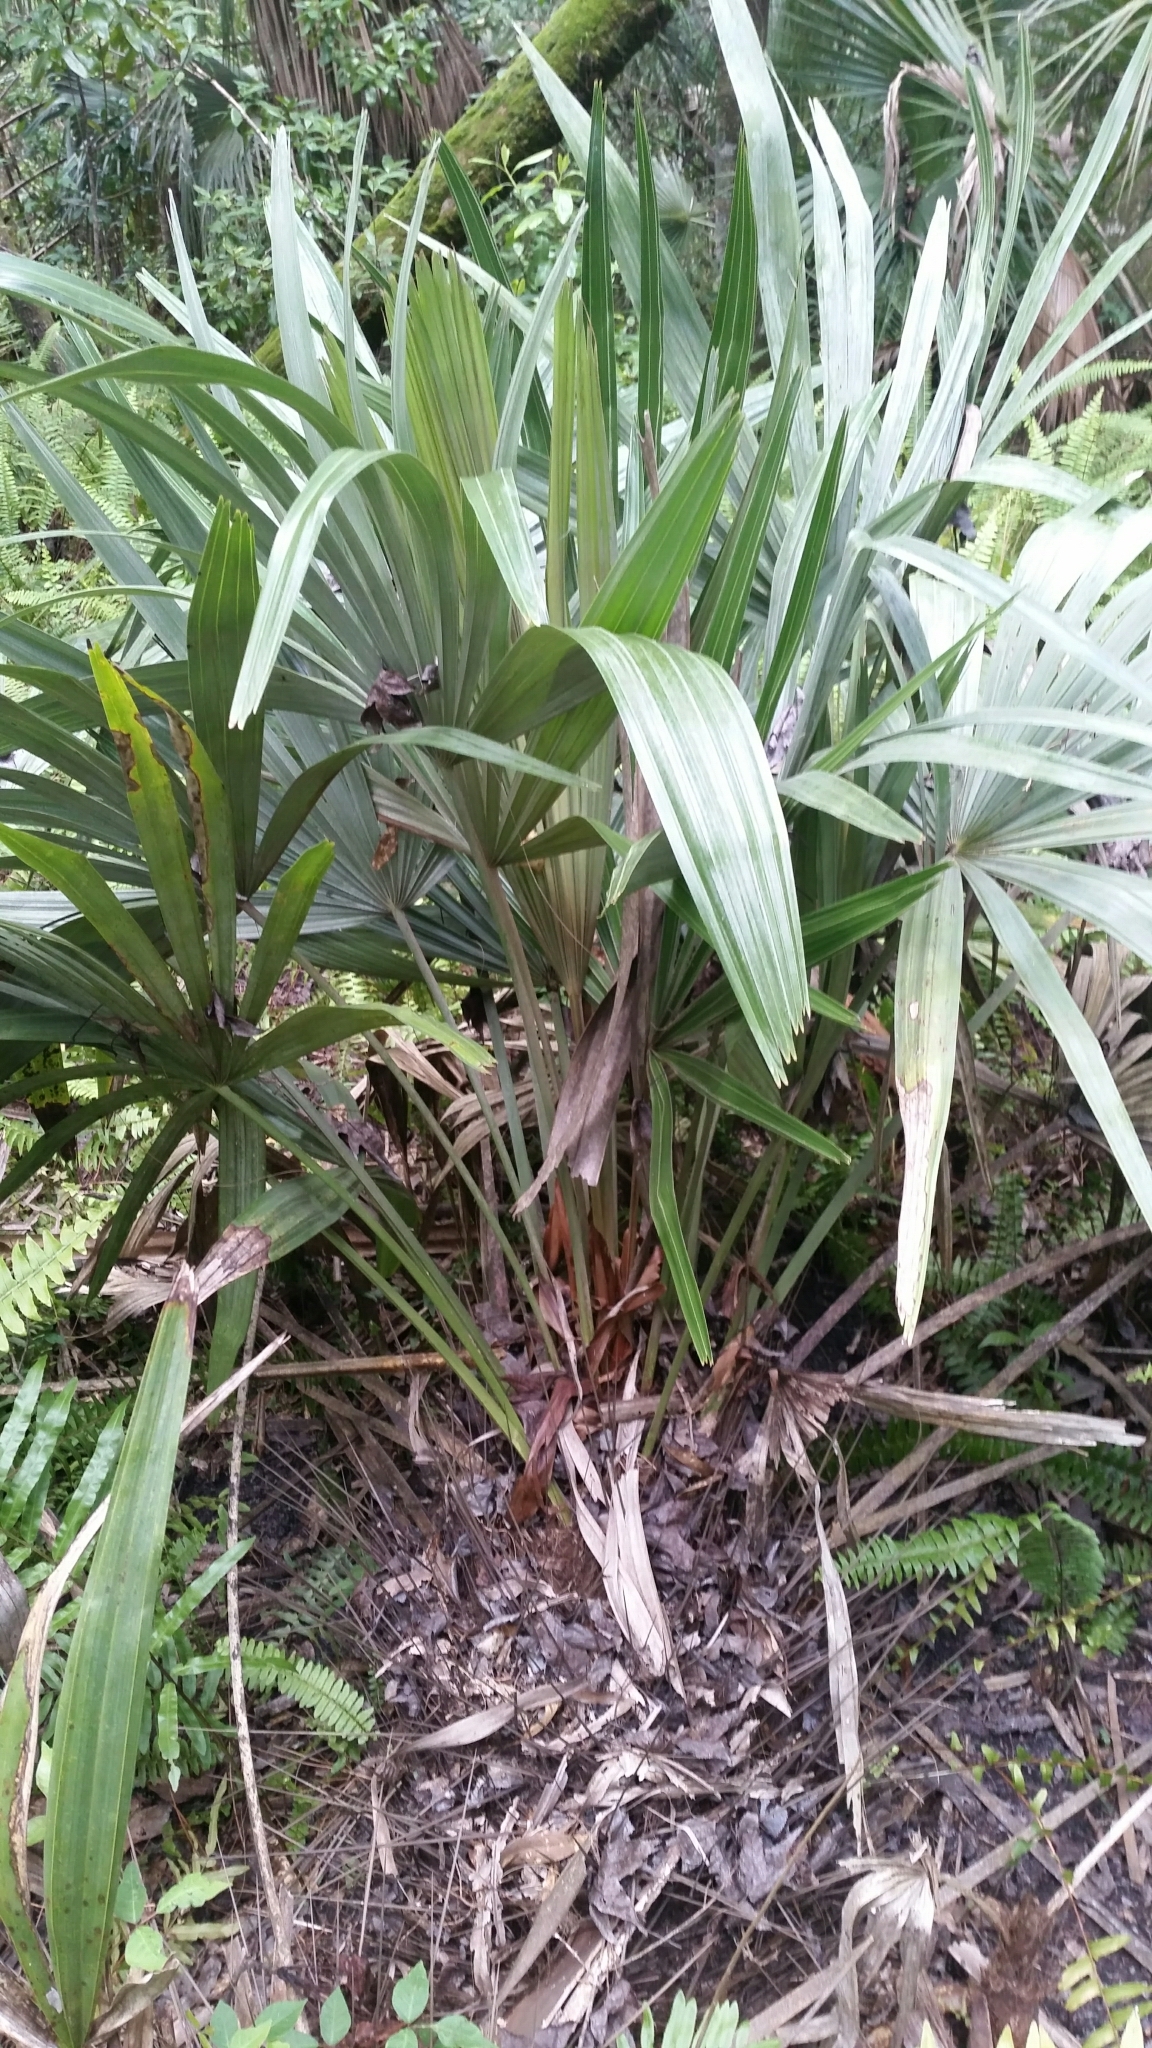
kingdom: Plantae
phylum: Tracheophyta
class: Liliopsida
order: Arecales
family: Arecaceae
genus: Rhapidophyllum
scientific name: Rhapidophyllum hystrix
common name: Porcupine palm
